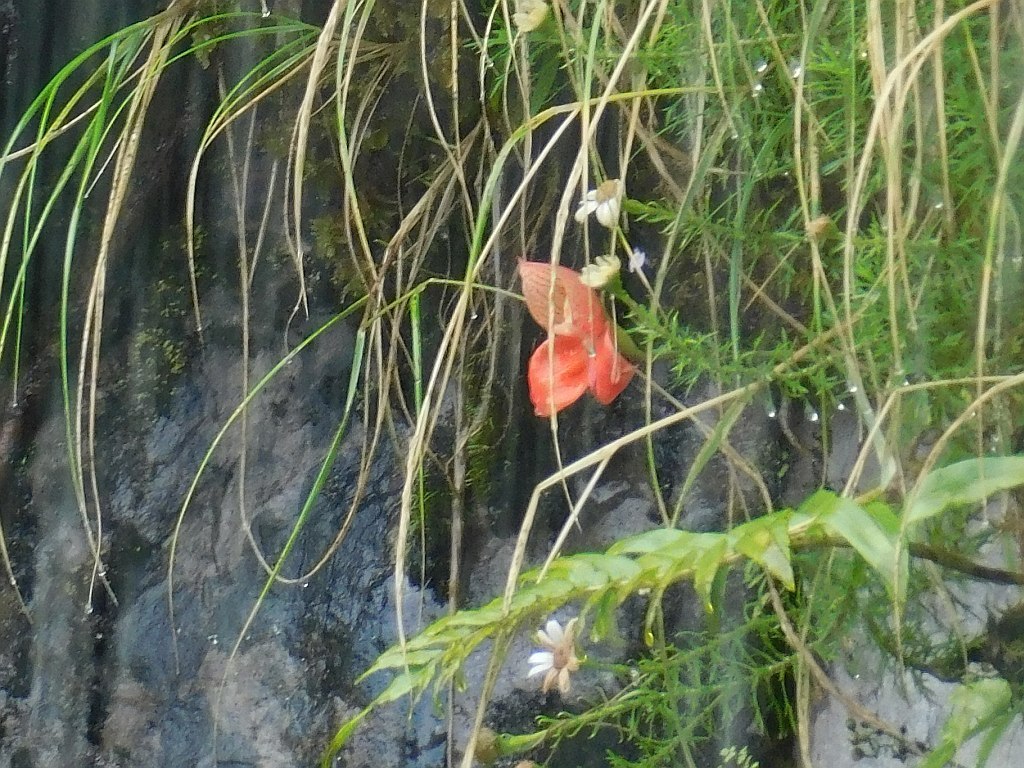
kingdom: Plantae
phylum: Tracheophyta
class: Liliopsida
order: Asparagales
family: Orchidaceae
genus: Disa
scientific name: Disa uniflora
